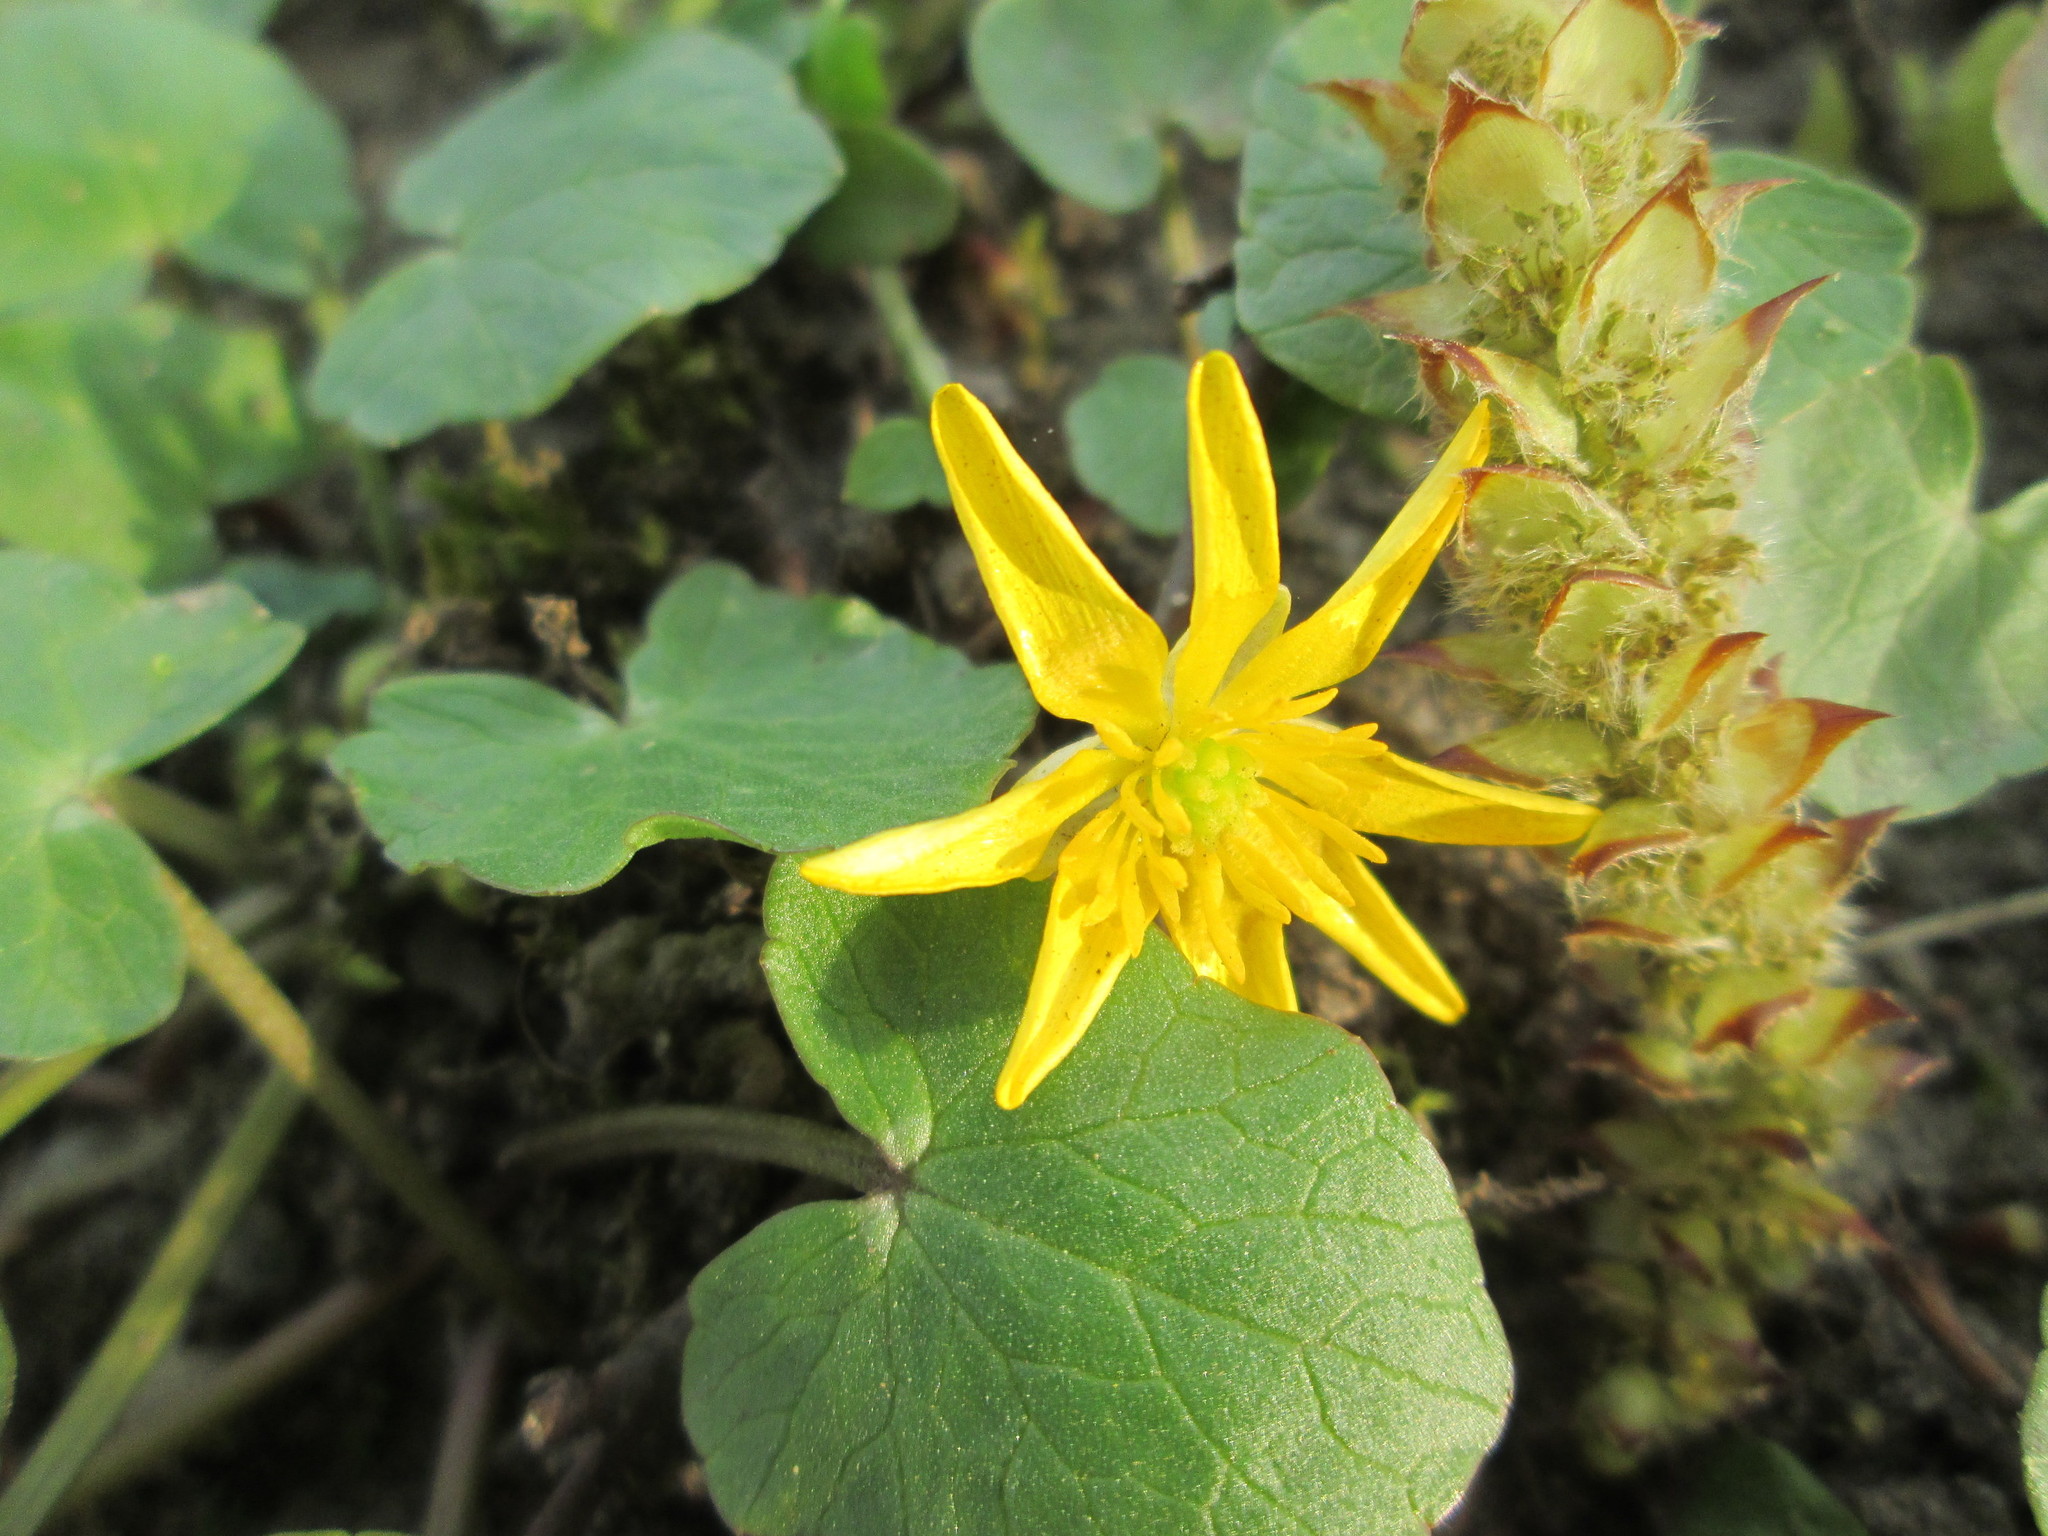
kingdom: Plantae
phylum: Tracheophyta
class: Magnoliopsida
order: Ranunculales
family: Ranunculaceae
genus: Ficaria
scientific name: Ficaria verna
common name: Lesser celandine
